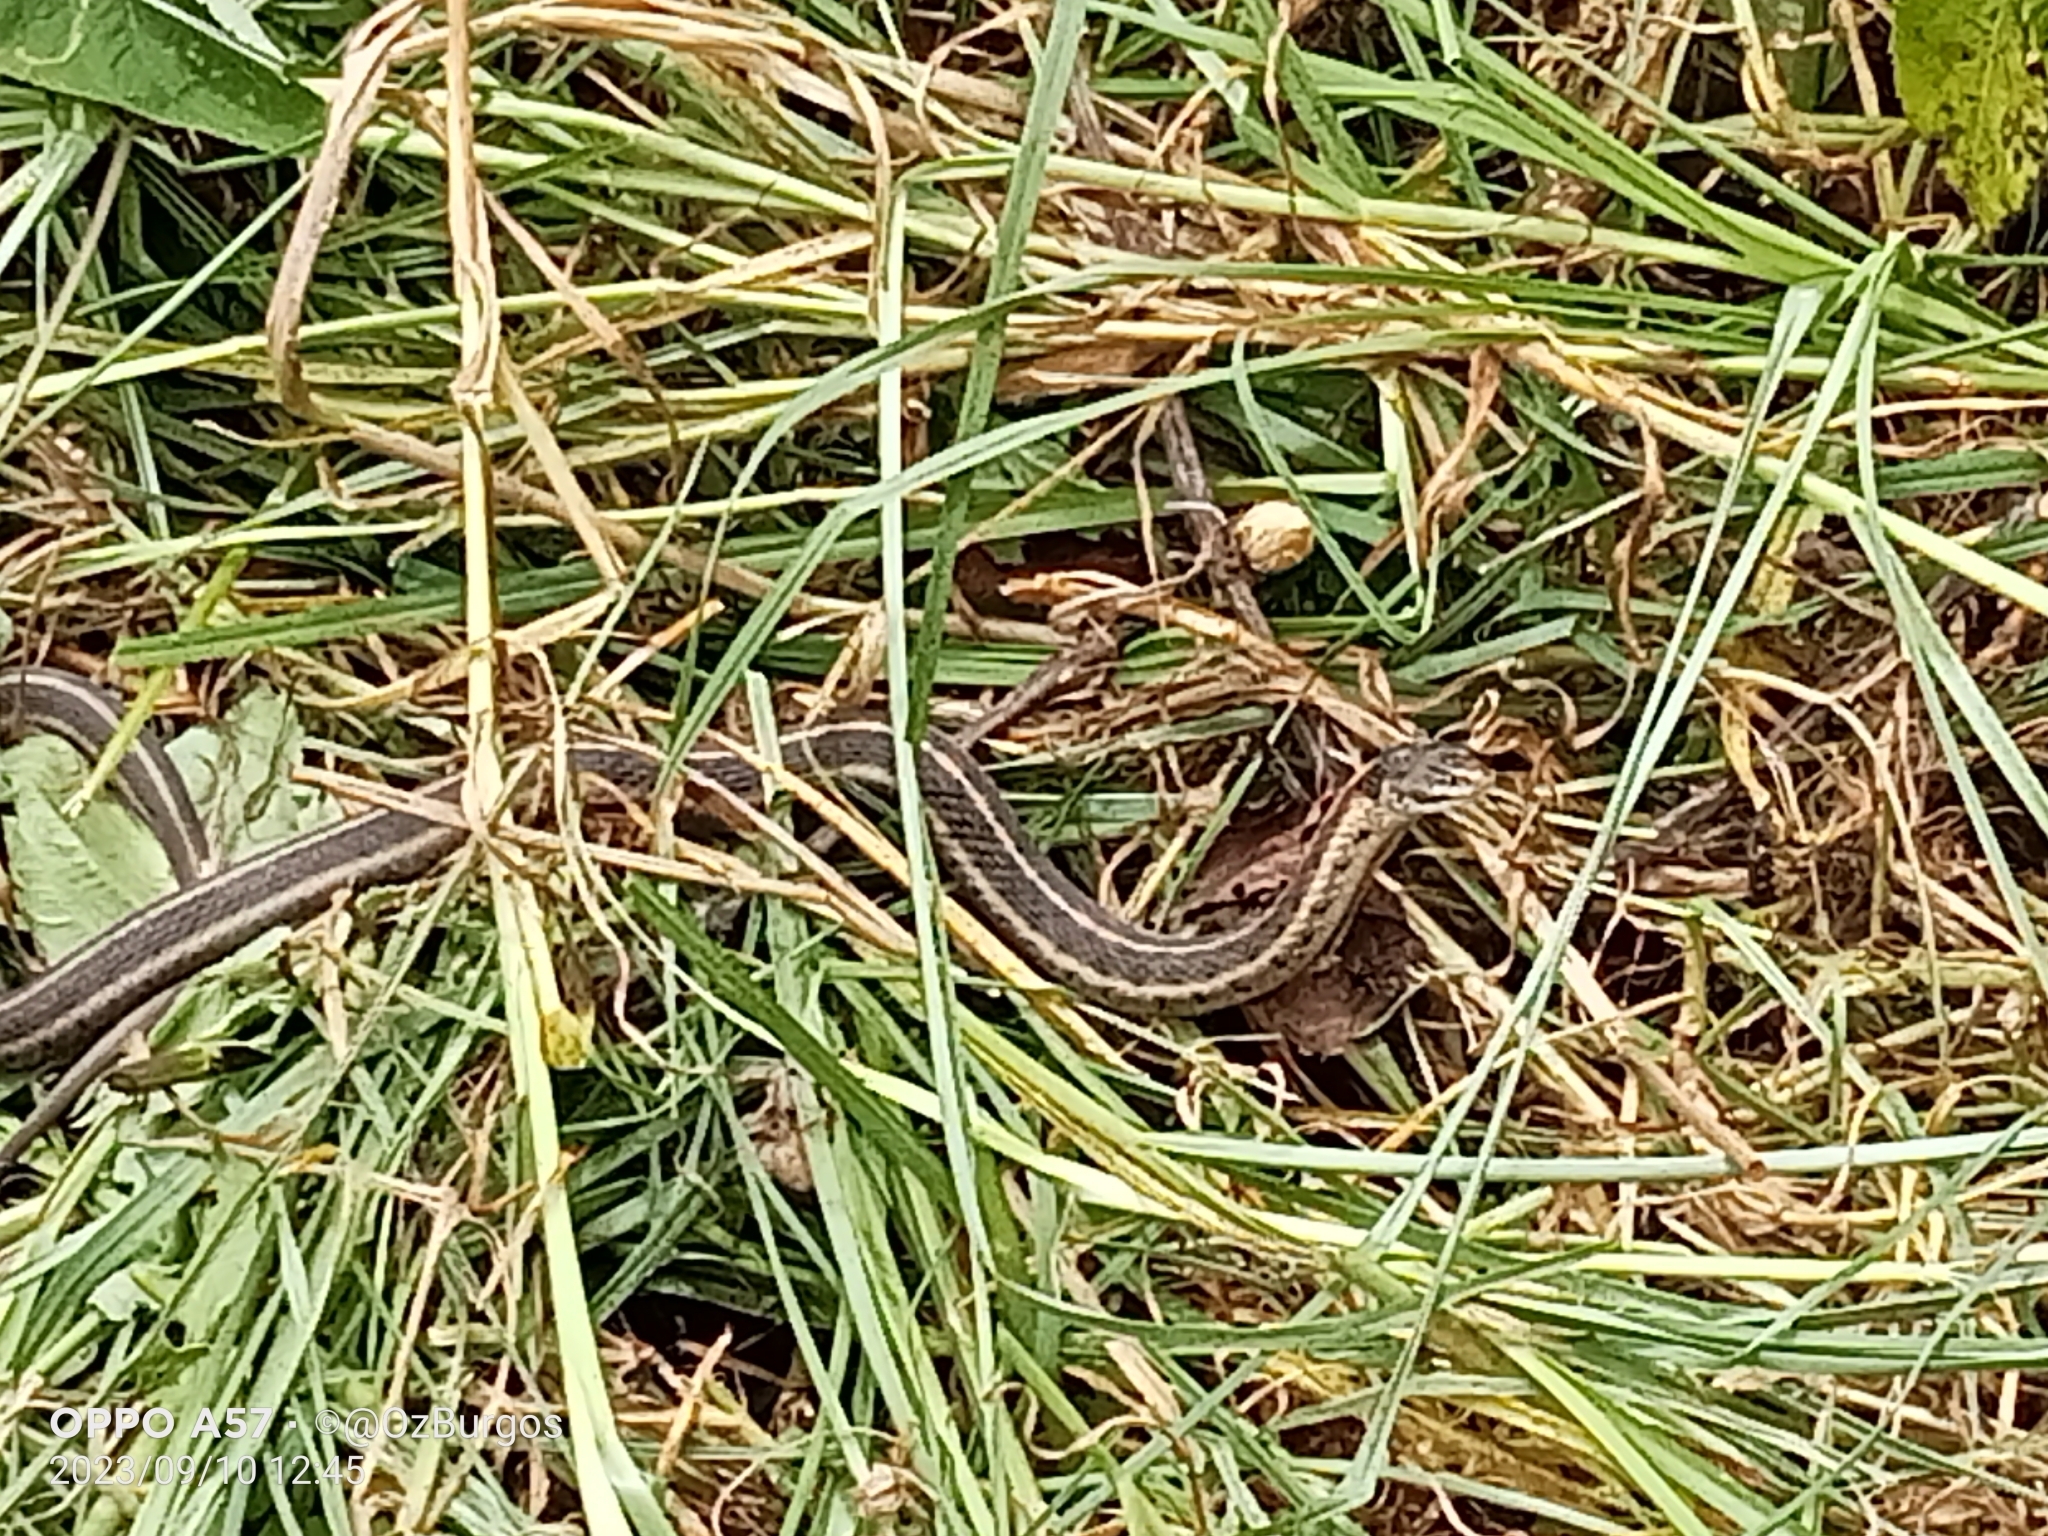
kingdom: Animalia
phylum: Chordata
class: Squamata
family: Colubridae
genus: Thamnophis
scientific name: Thamnophis bogerti
